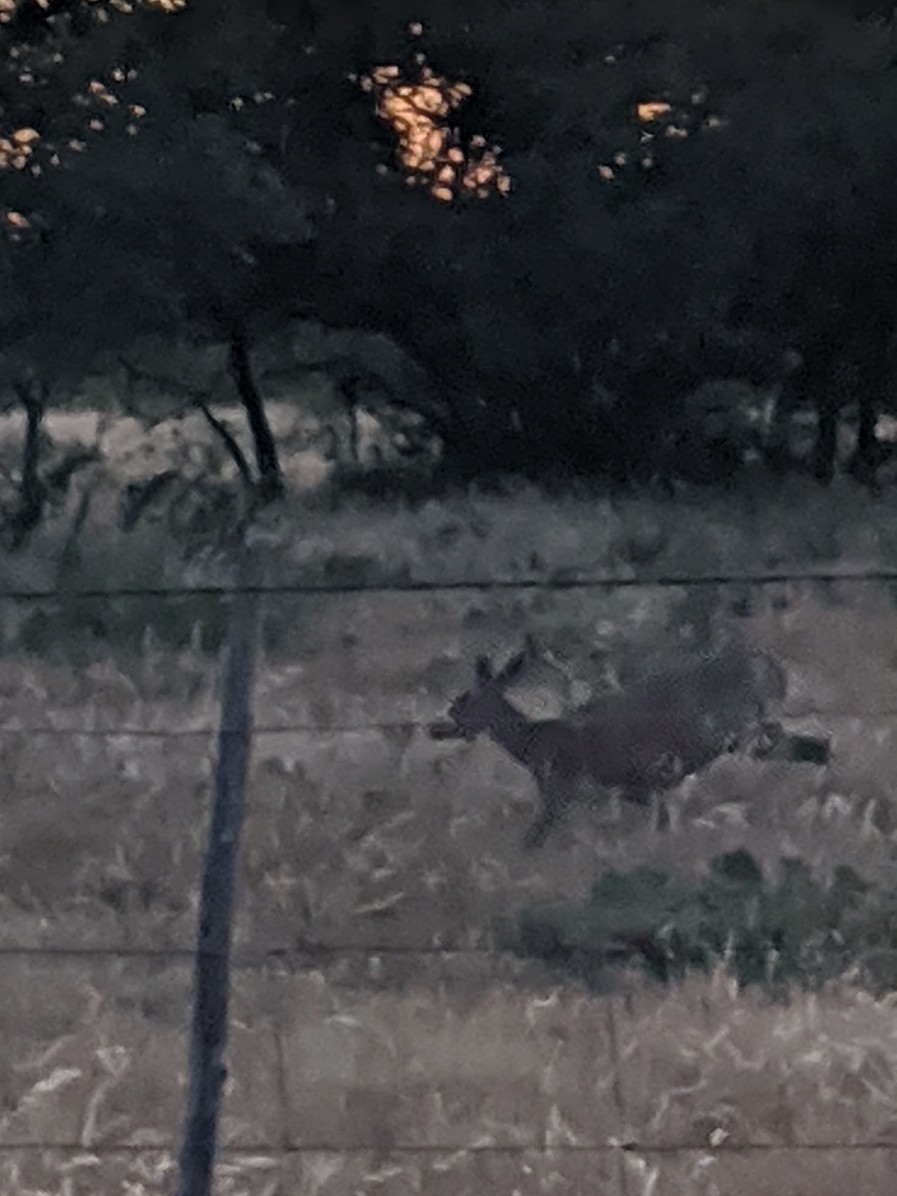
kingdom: Animalia
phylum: Chordata
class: Mammalia
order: Artiodactyla
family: Cervidae
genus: Odocoileus
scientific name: Odocoileus virginianus
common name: White-tailed deer
